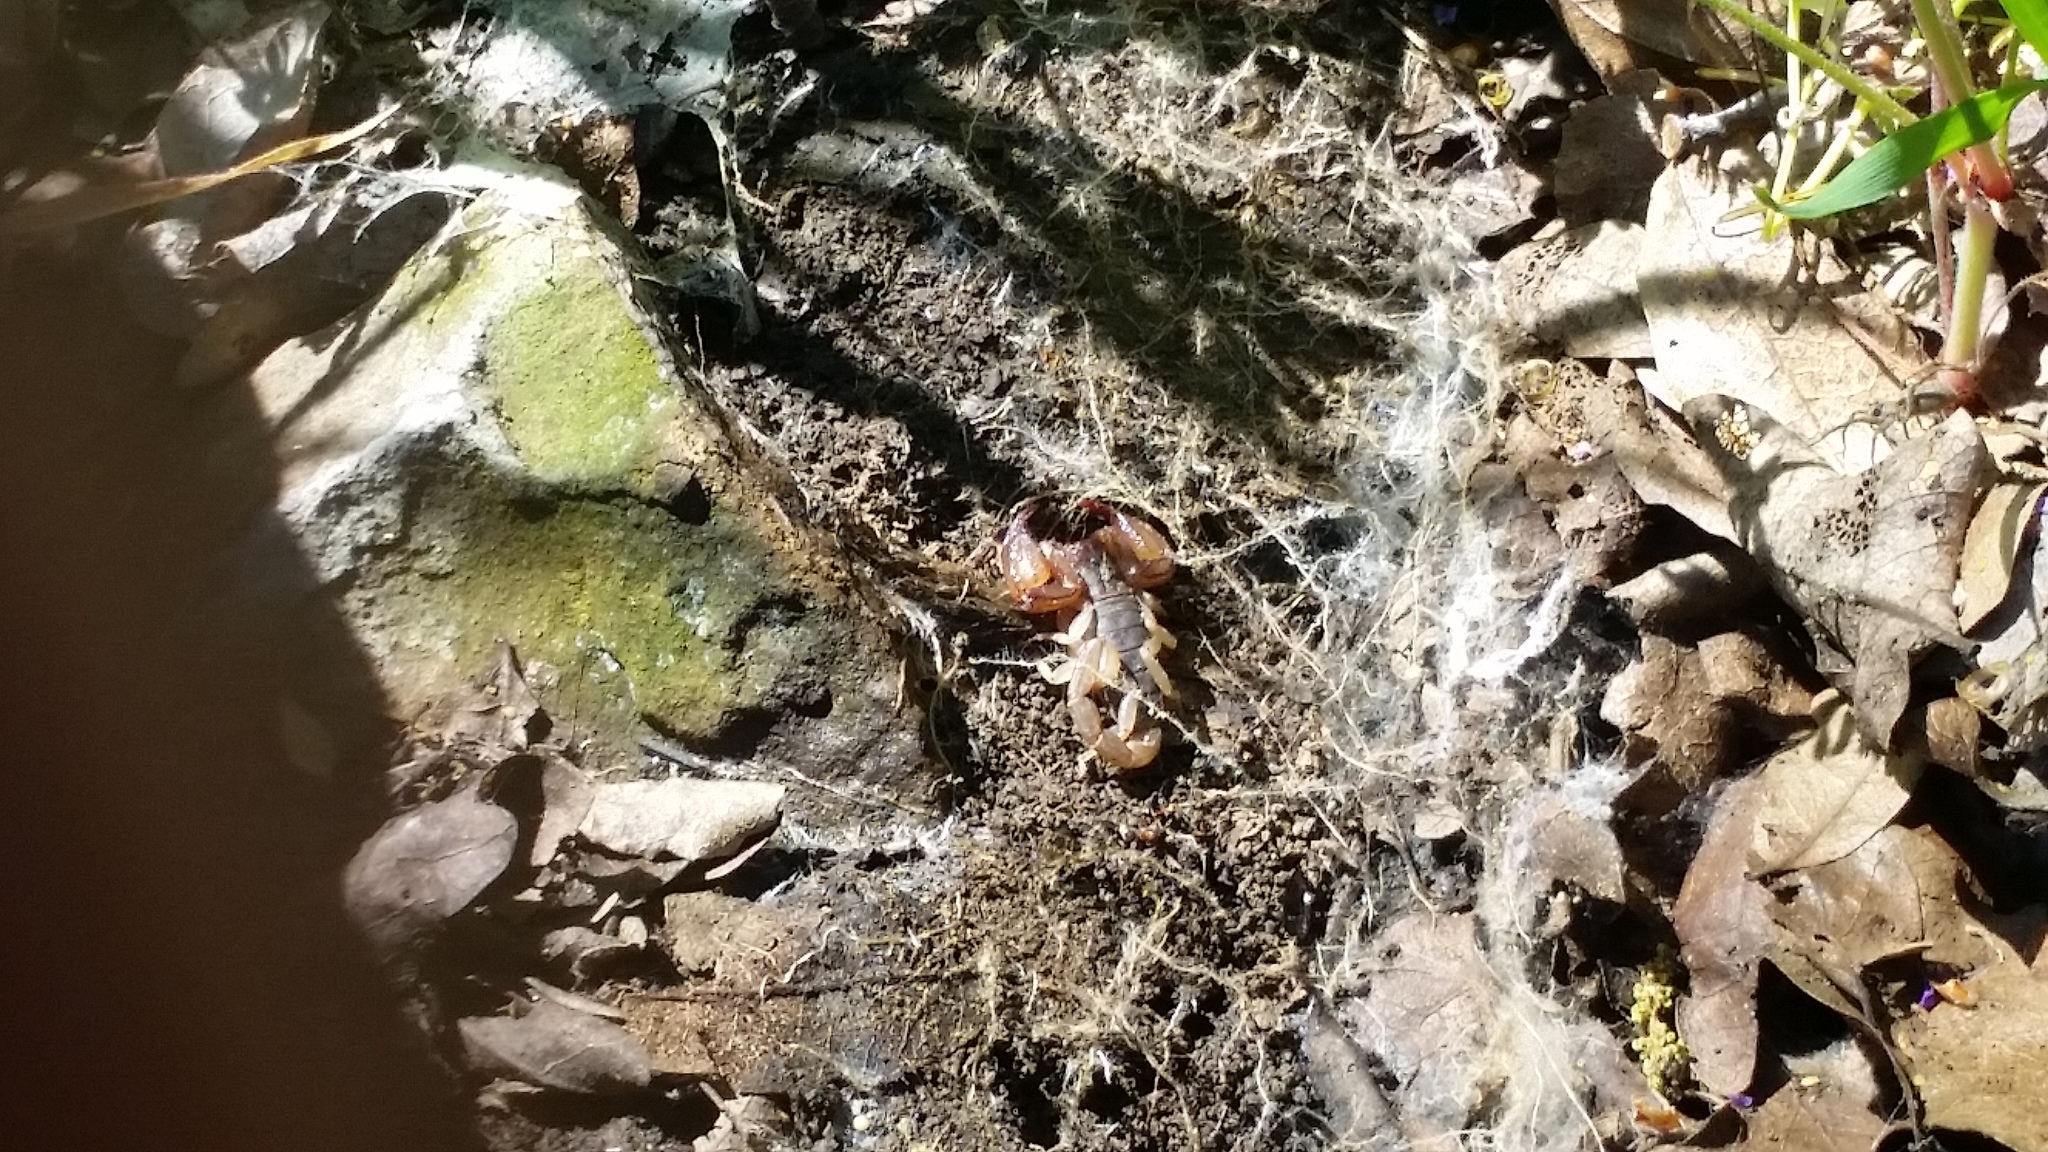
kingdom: Animalia
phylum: Arthropoda
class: Arachnida
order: Scorpiones
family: Chactidae
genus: Uroctonus
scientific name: Uroctonus mordax
